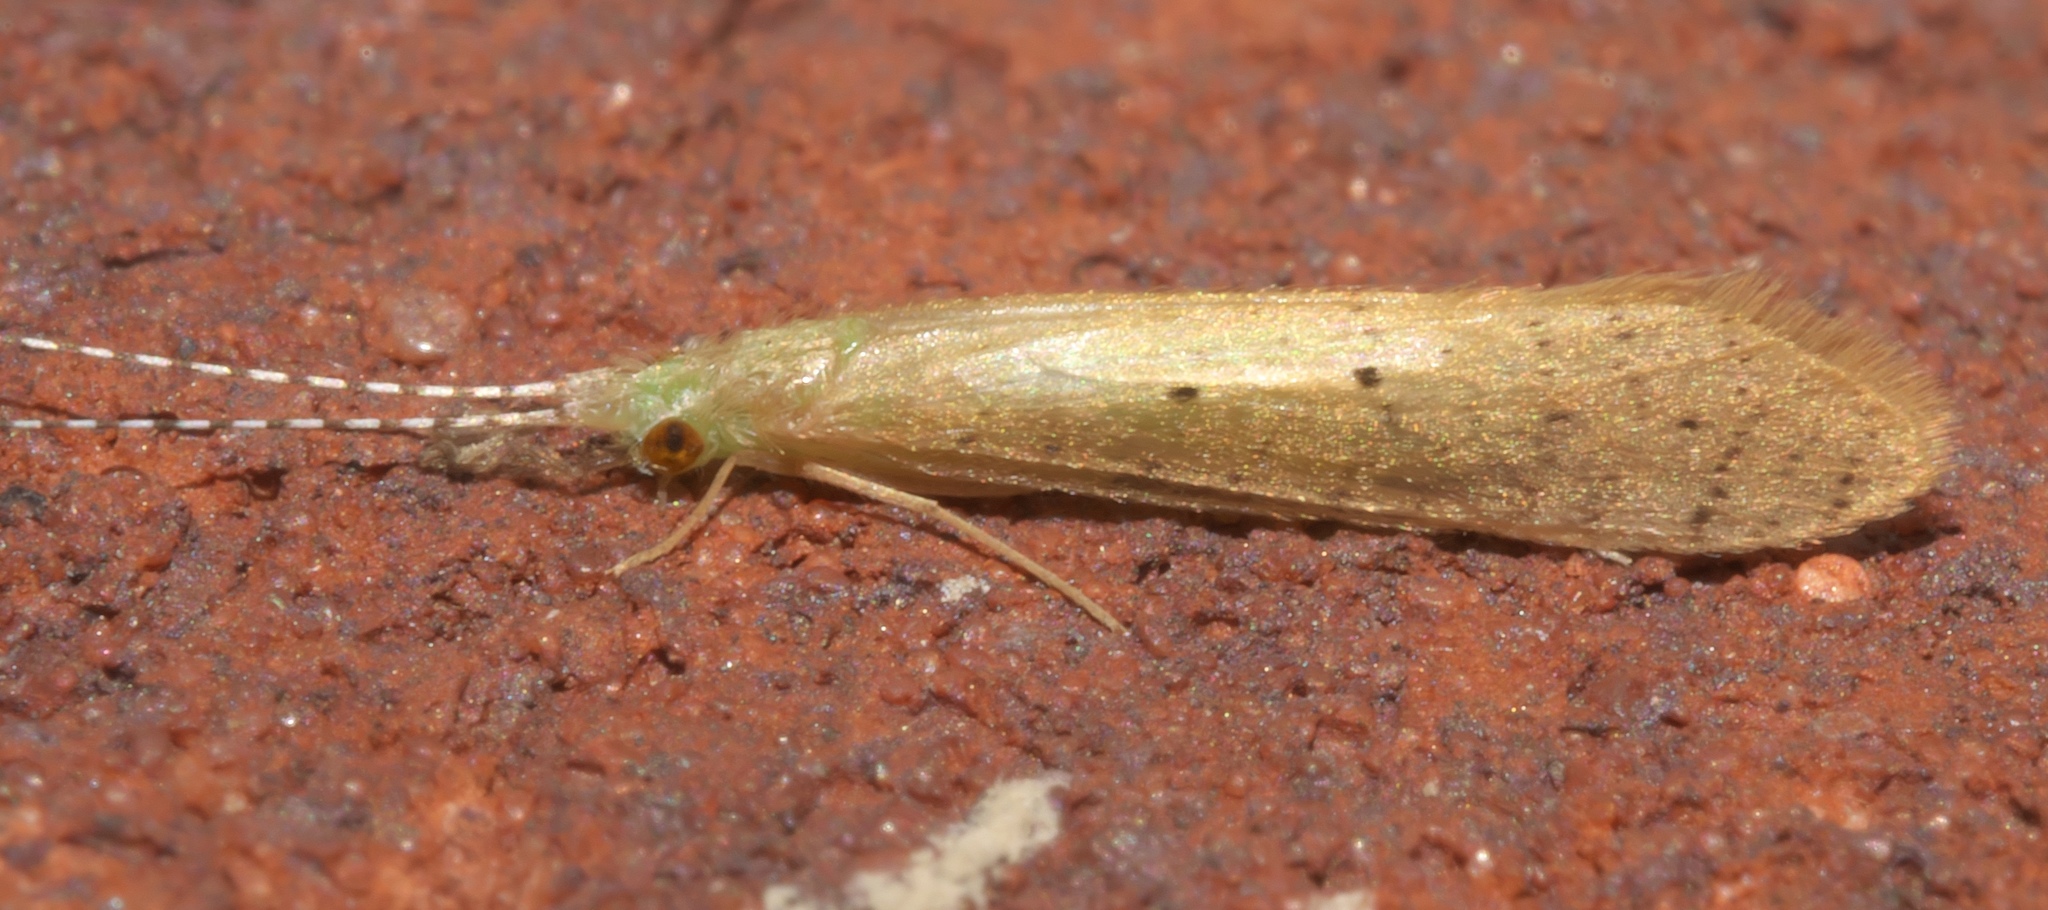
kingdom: Animalia
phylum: Arthropoda
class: Insecta
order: Trichoptera
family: Leptoceridae
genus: Nectopsyche
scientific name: Nectopsyche pavida
